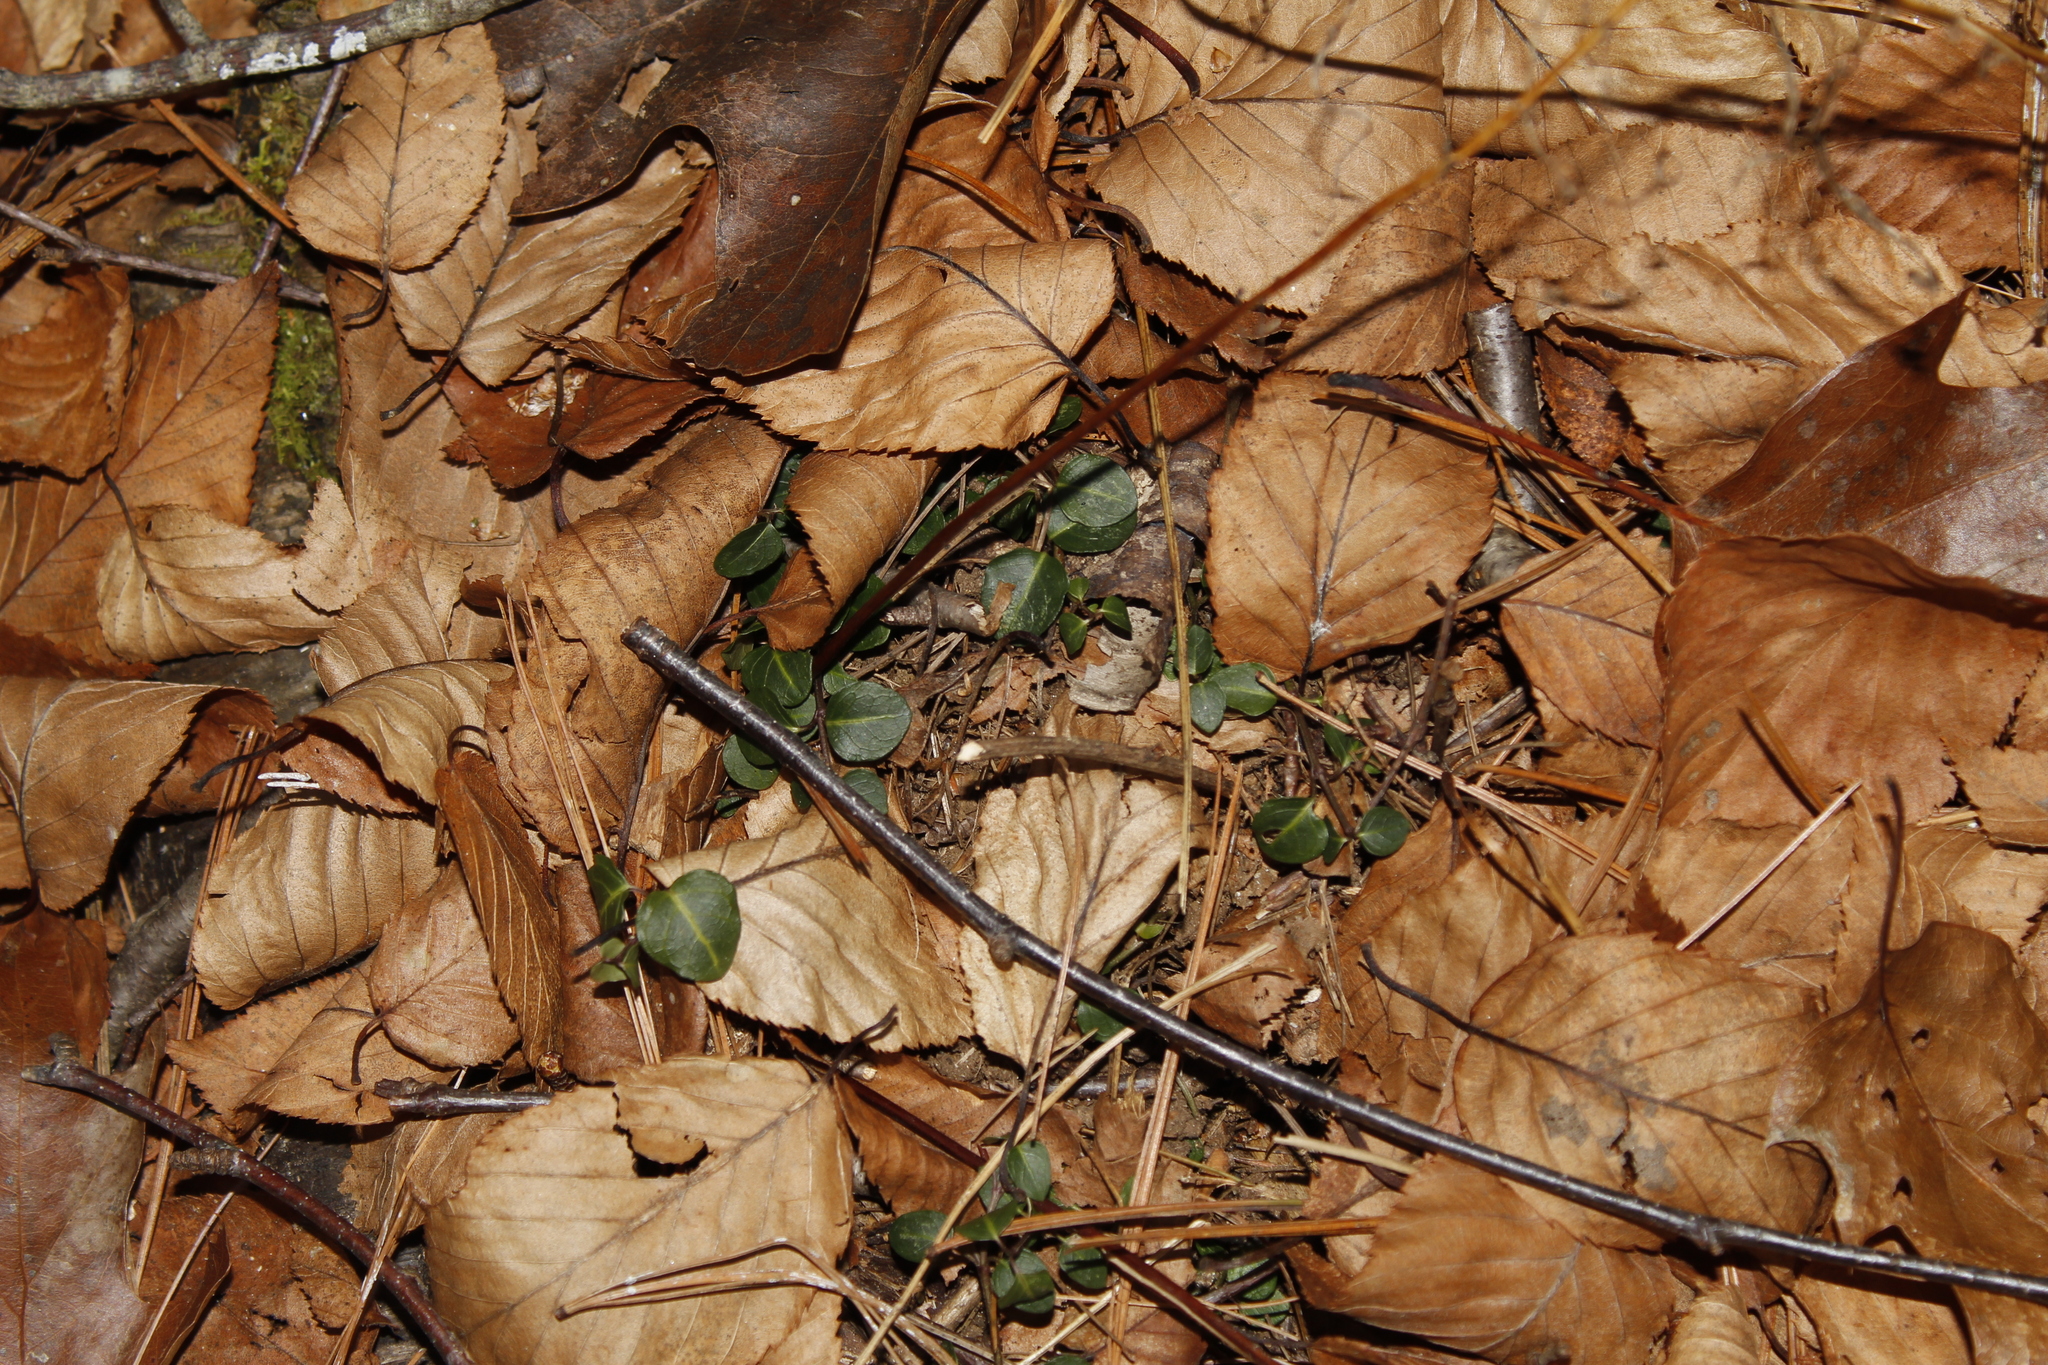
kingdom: Plantae
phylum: Tracheophyta
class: Magnoliopsida
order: Gentianales
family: Rubiaceae
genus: Mitchella
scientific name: Mitchella repens
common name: Partridge-berry
